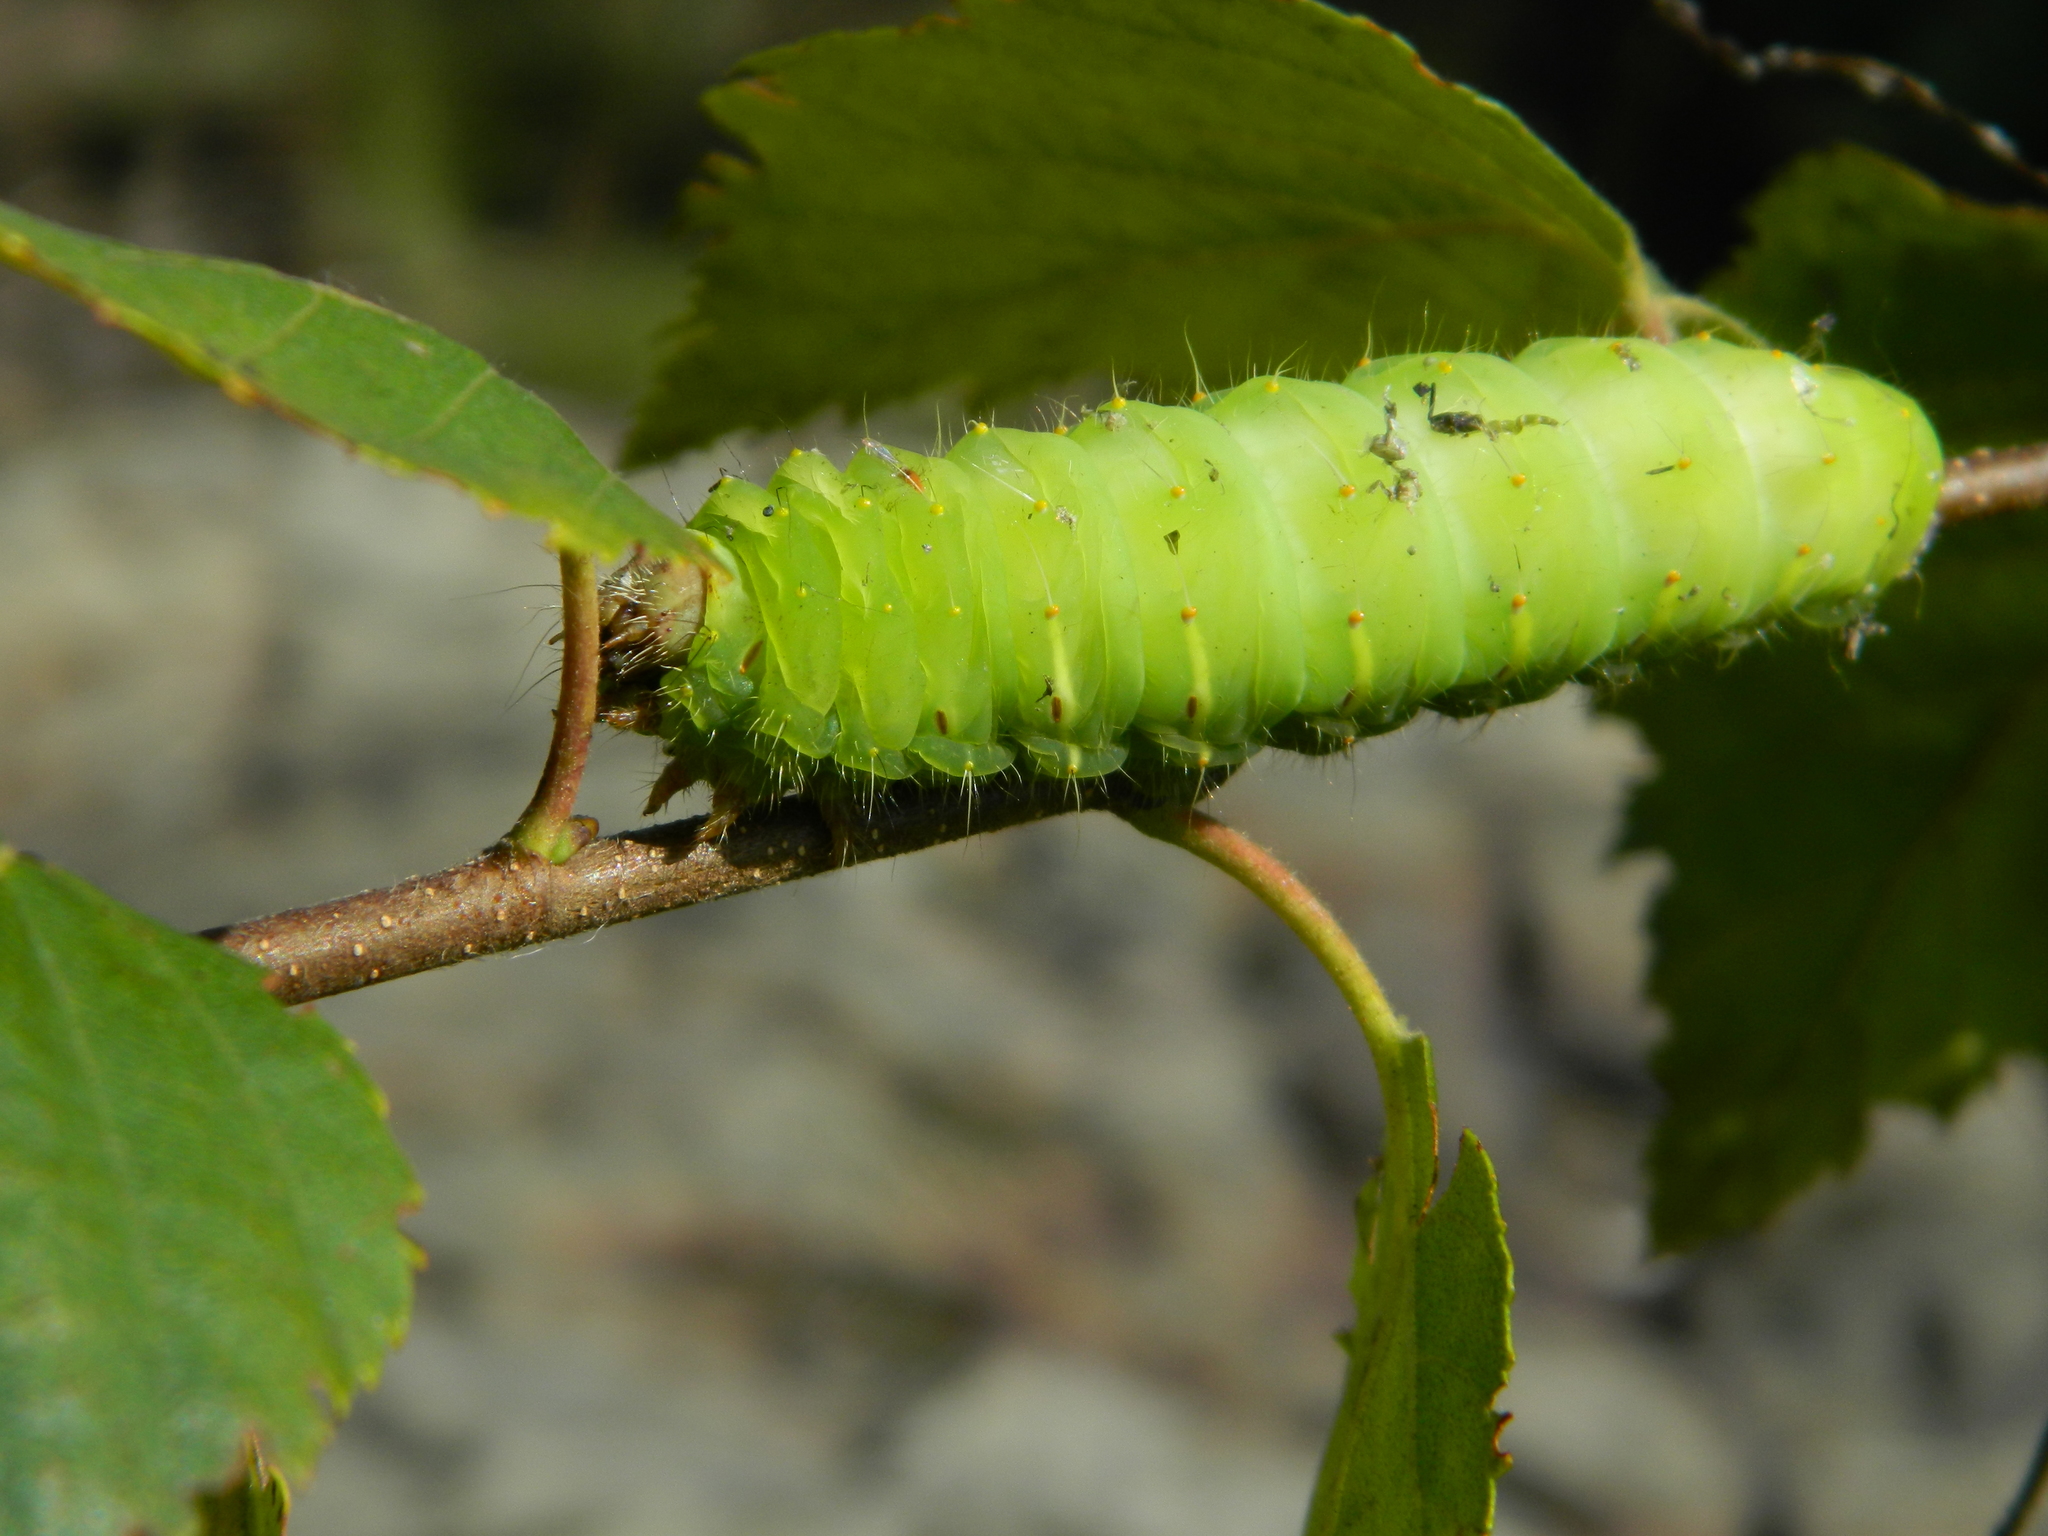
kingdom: Animalia
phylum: Arthropoda
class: Insecta
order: Lepidoptera
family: Saturniidae
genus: Antheraea
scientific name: Antheraea polyphemus
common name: Polyphemus moth
